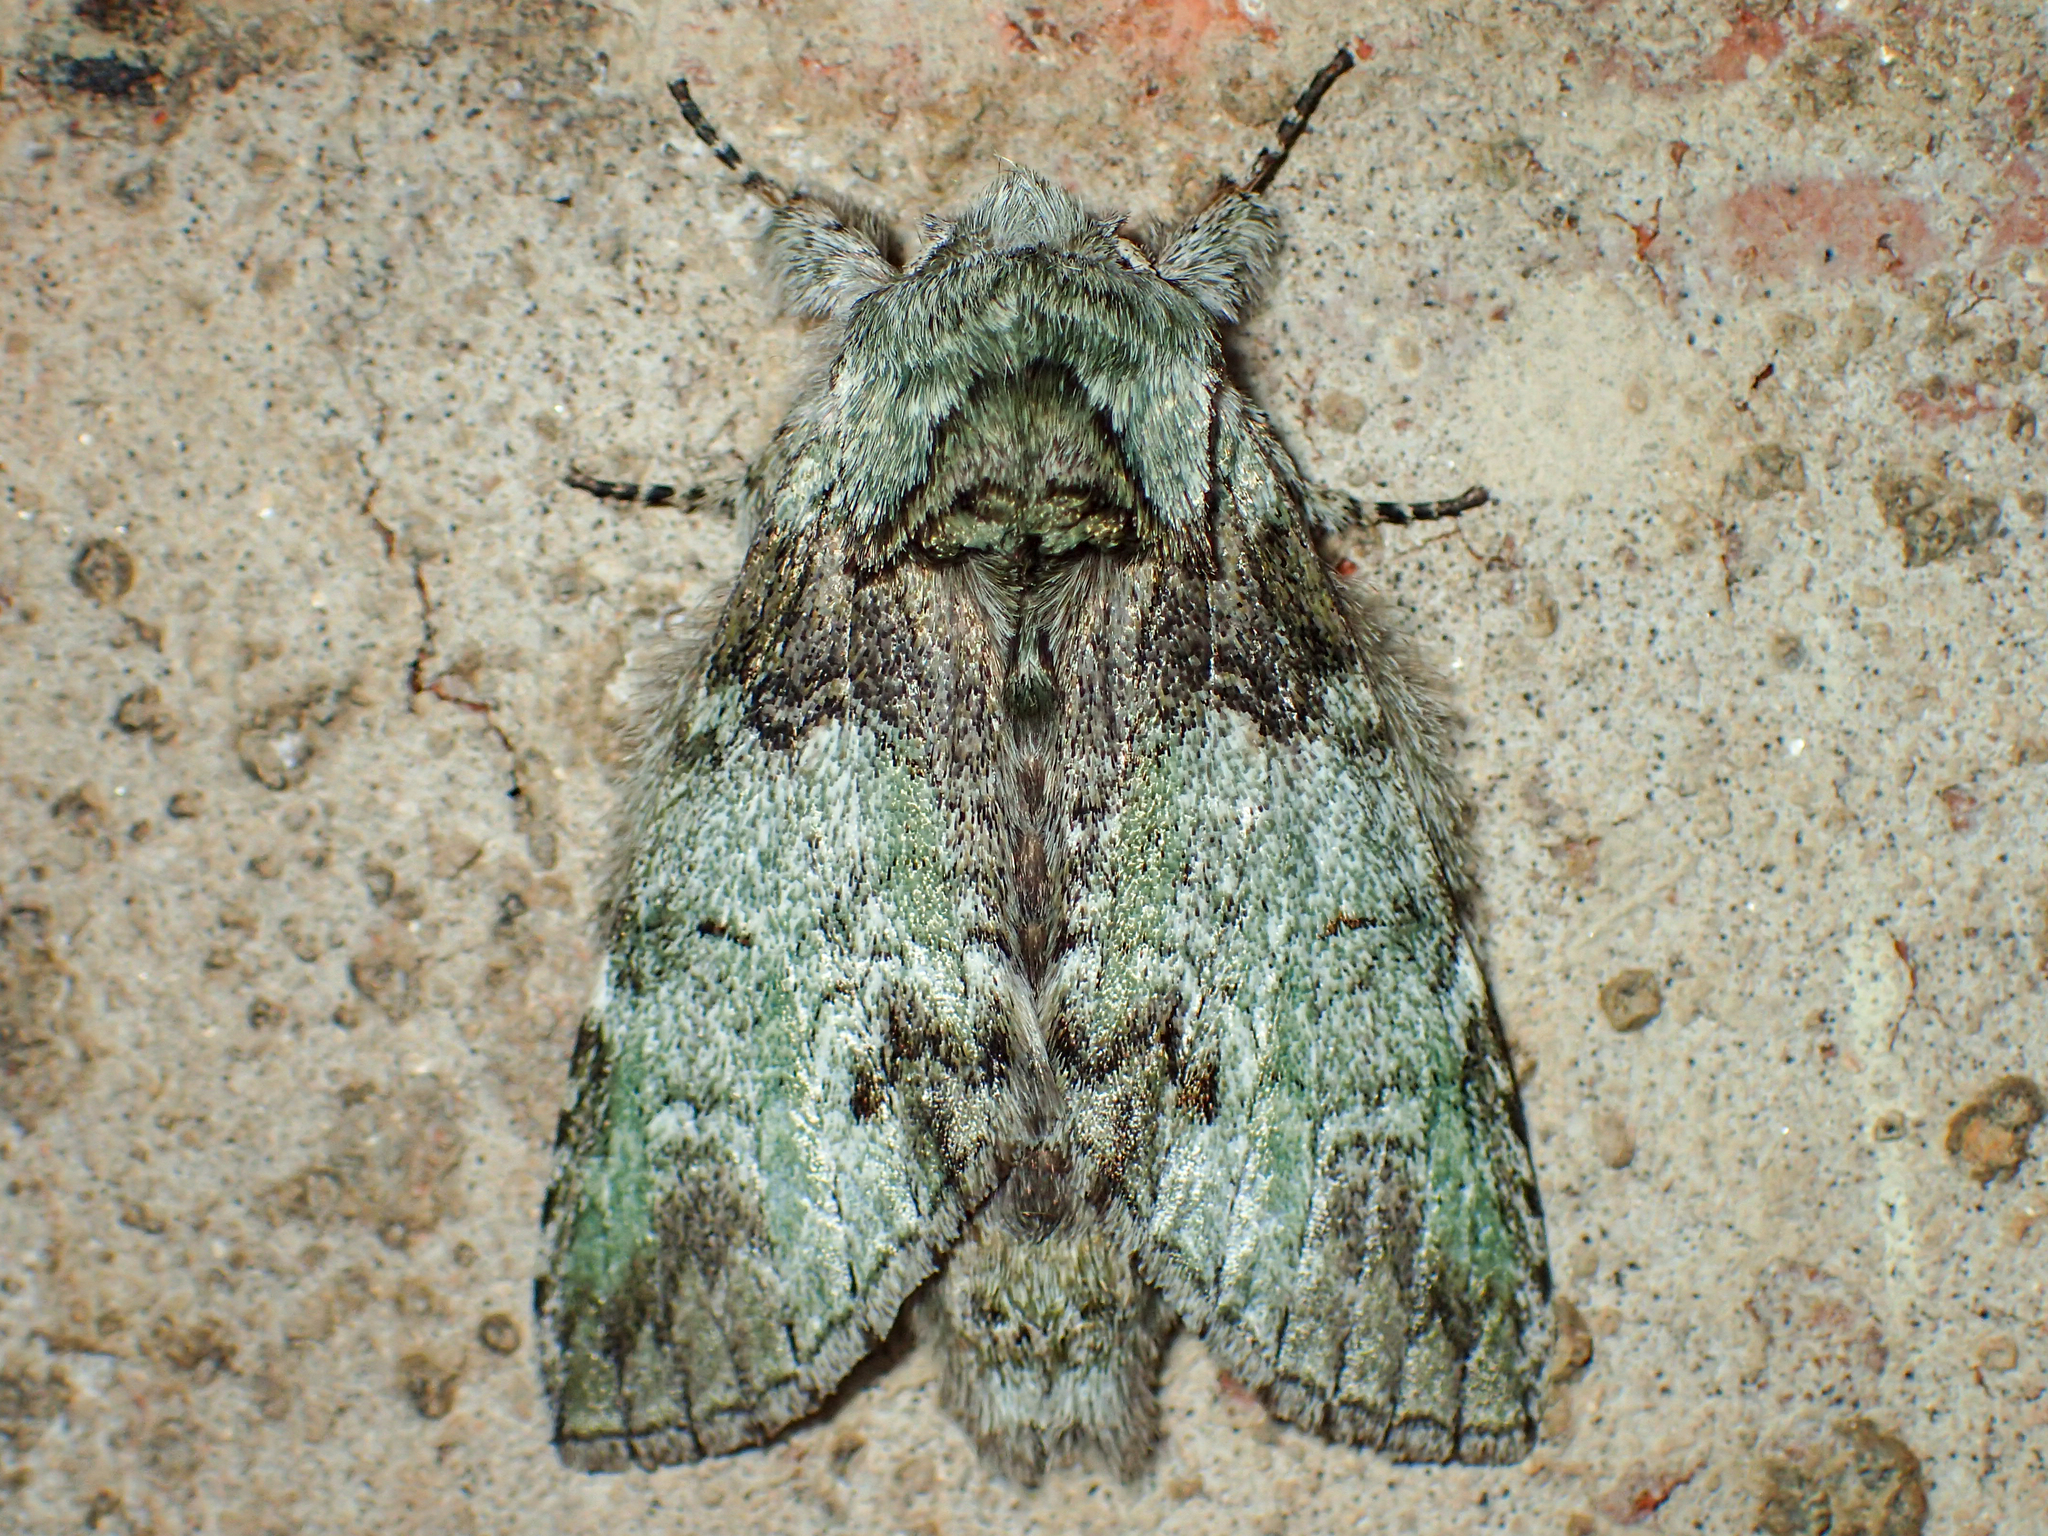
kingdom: Animalia
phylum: Arthropoda
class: Insecta
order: Lepidoptera
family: Notodontidae
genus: Macrurocampa
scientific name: Macrurocampa marthesia
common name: Mottled prominent
